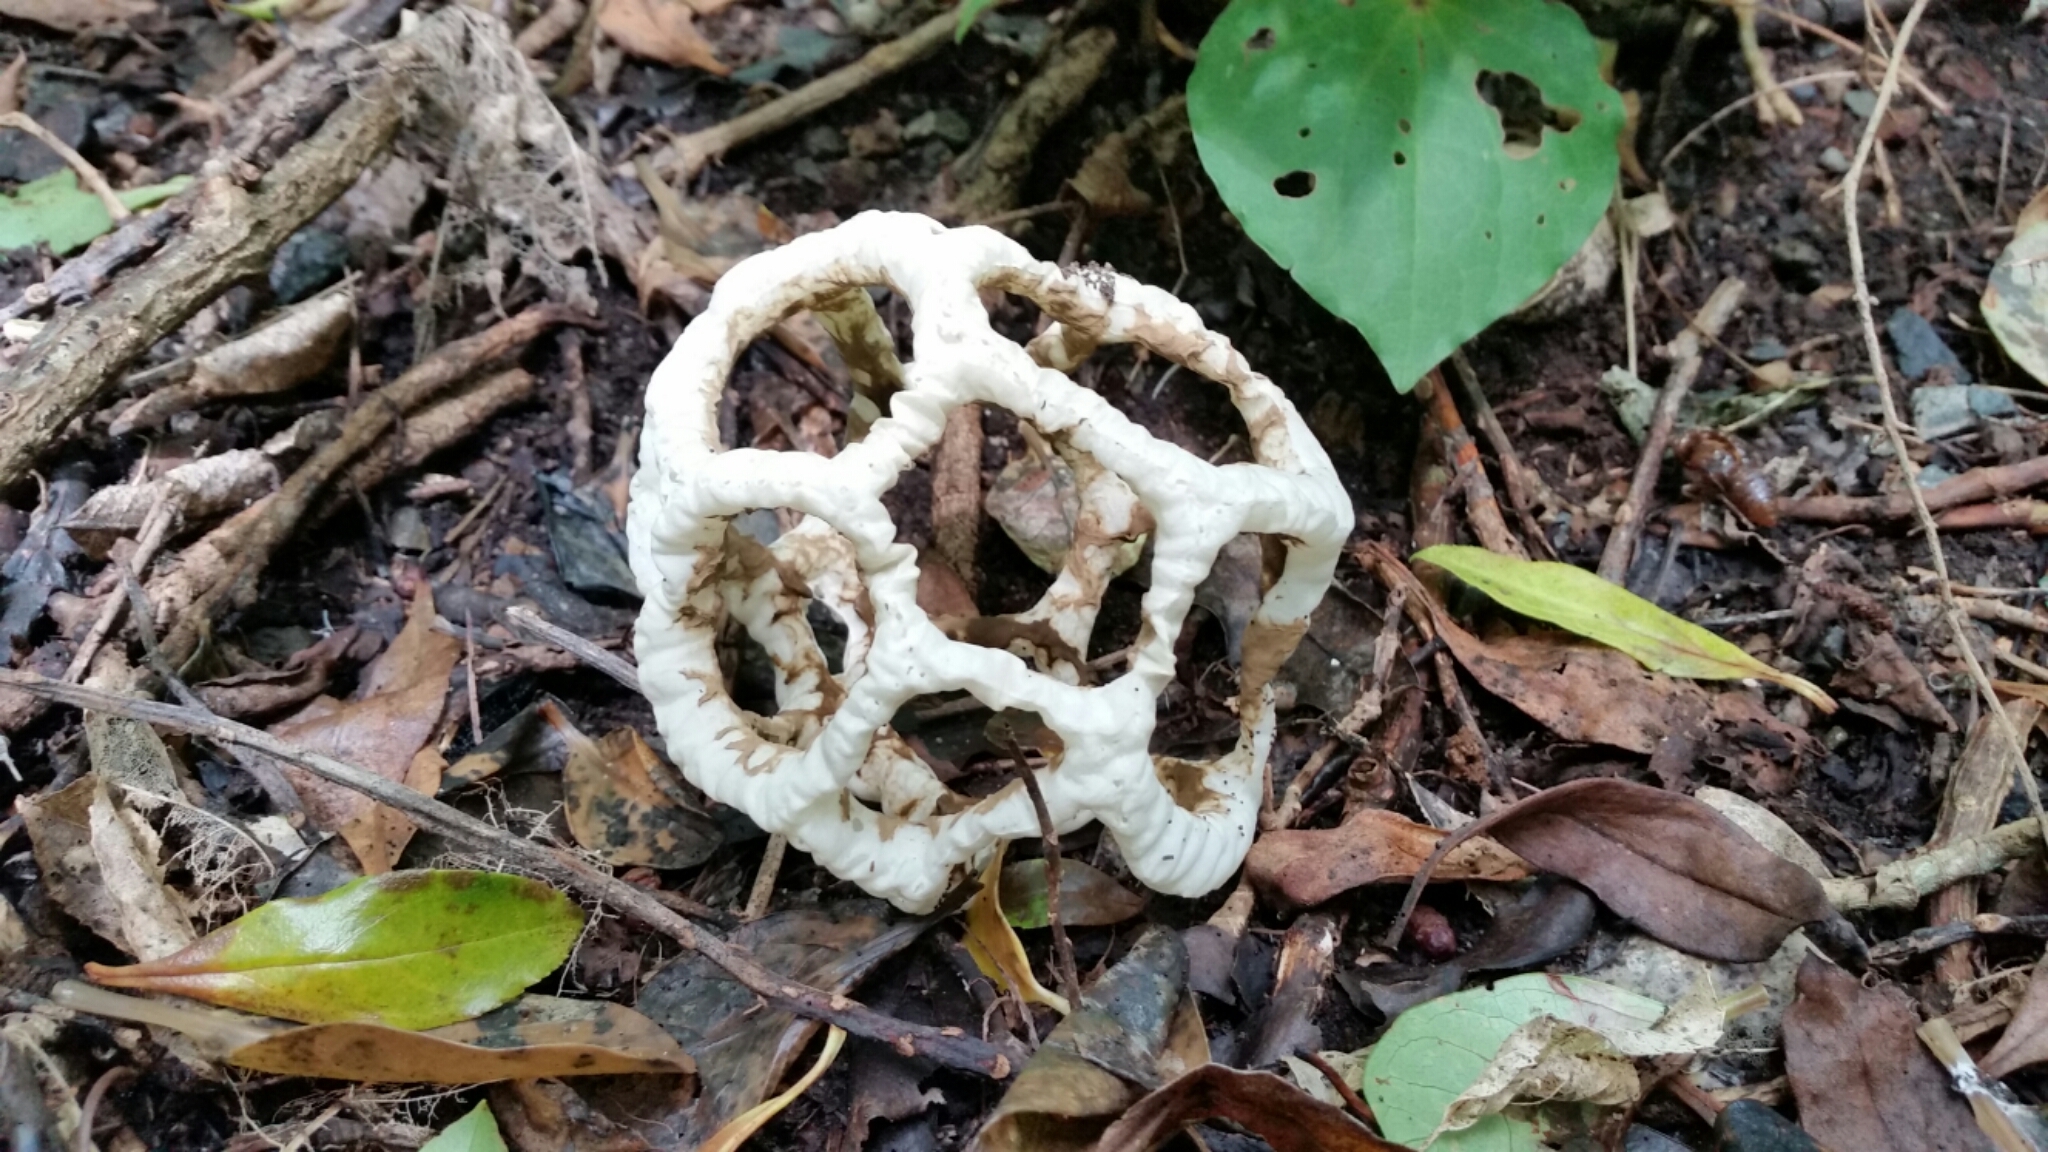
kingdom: Fungi
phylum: Basidiomycota
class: Agaricomycetes
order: Phallales
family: Phallaceae
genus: Ileodictyon
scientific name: Ileodictyon cibarium
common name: Basket fungus
